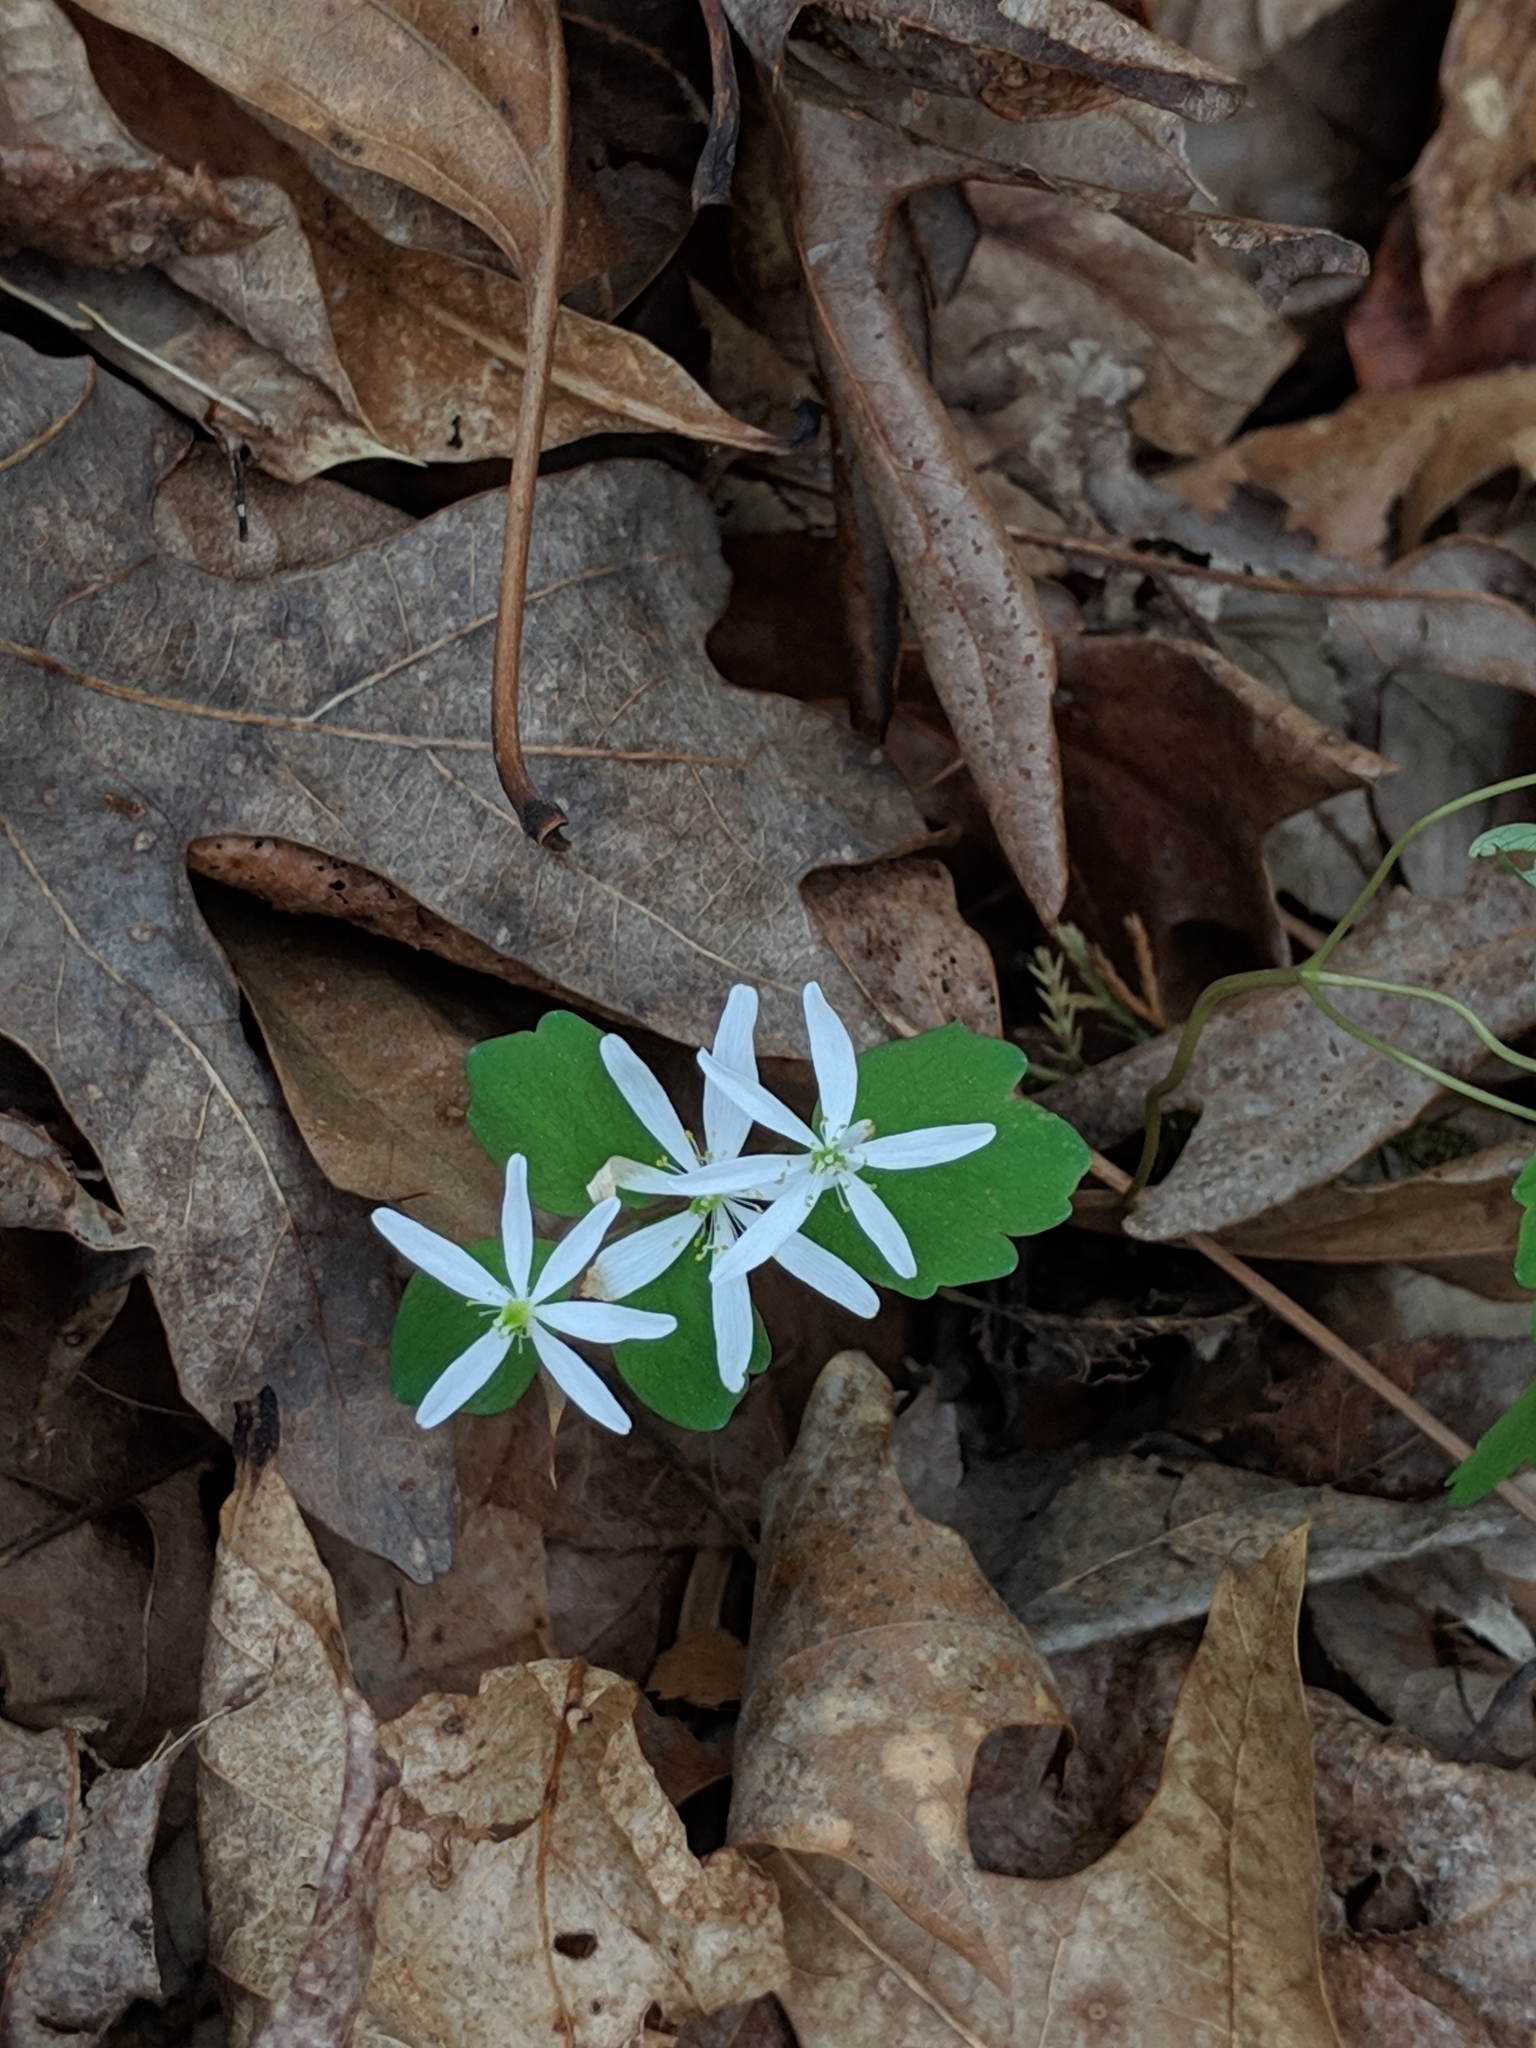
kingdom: Plantae
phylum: Tracheophyta
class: Magnoliopsida
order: Ranunculales
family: Ranunculaceae
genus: Thalictrum
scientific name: Thalictrum thalictroides
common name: Rue-anemone
